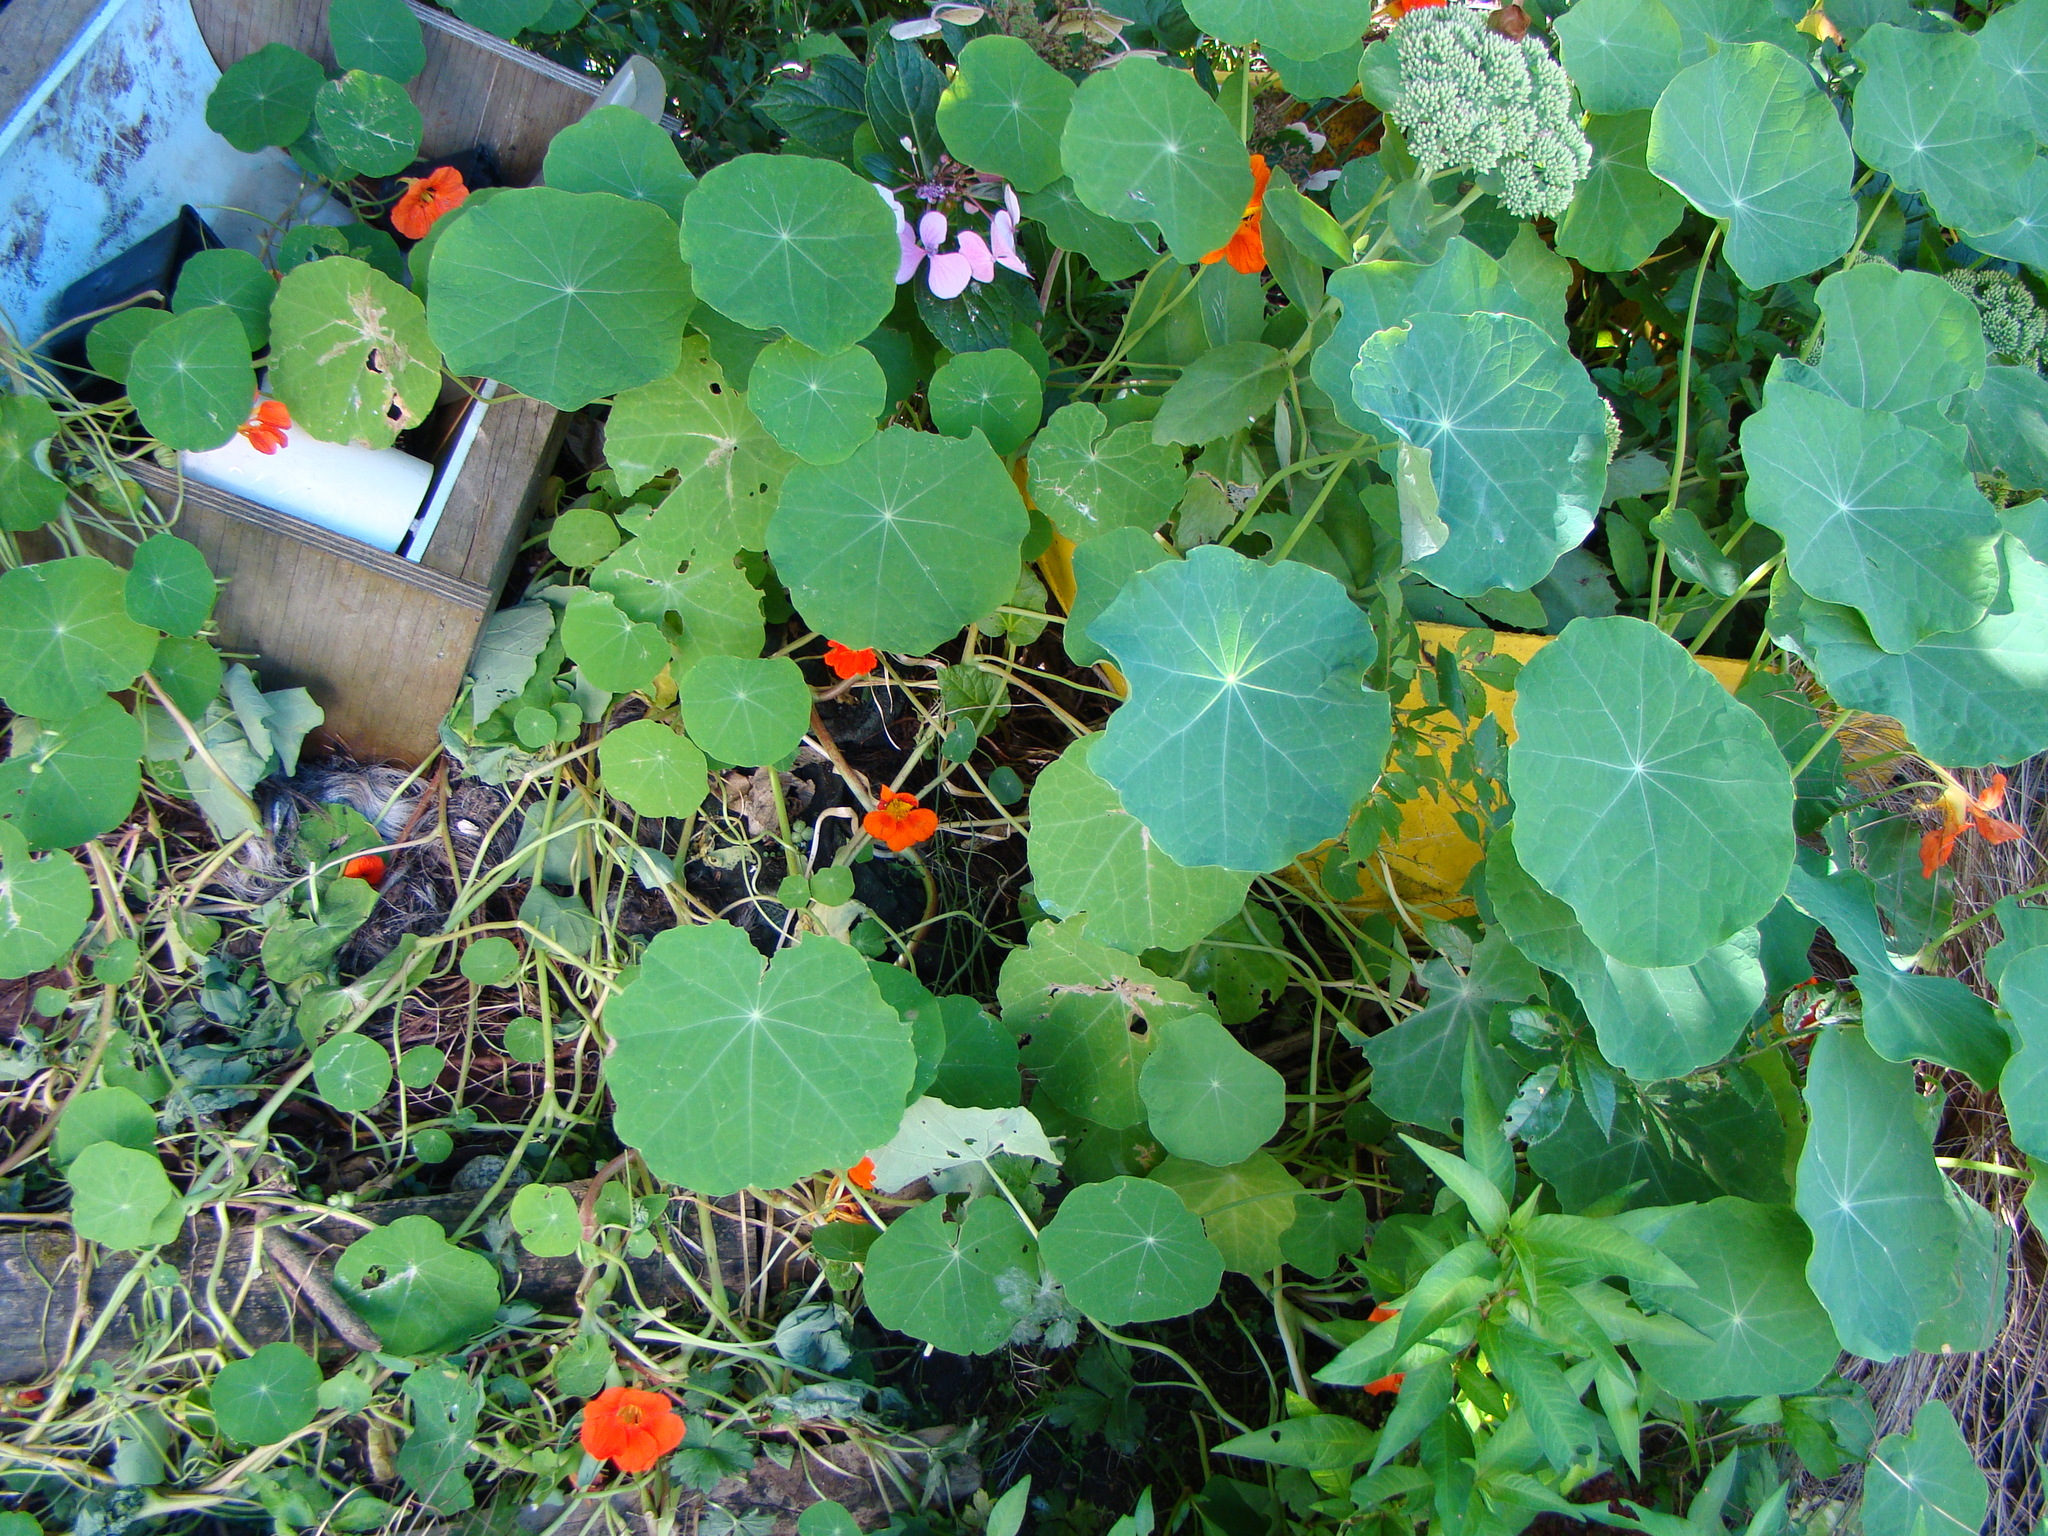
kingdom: Plantae
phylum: Tracheophyta
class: Magnoliopsida
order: Brassicales
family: Tropaeolaceae
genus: Tropaeolum
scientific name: Tropaeolum majus
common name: Nasturtium
